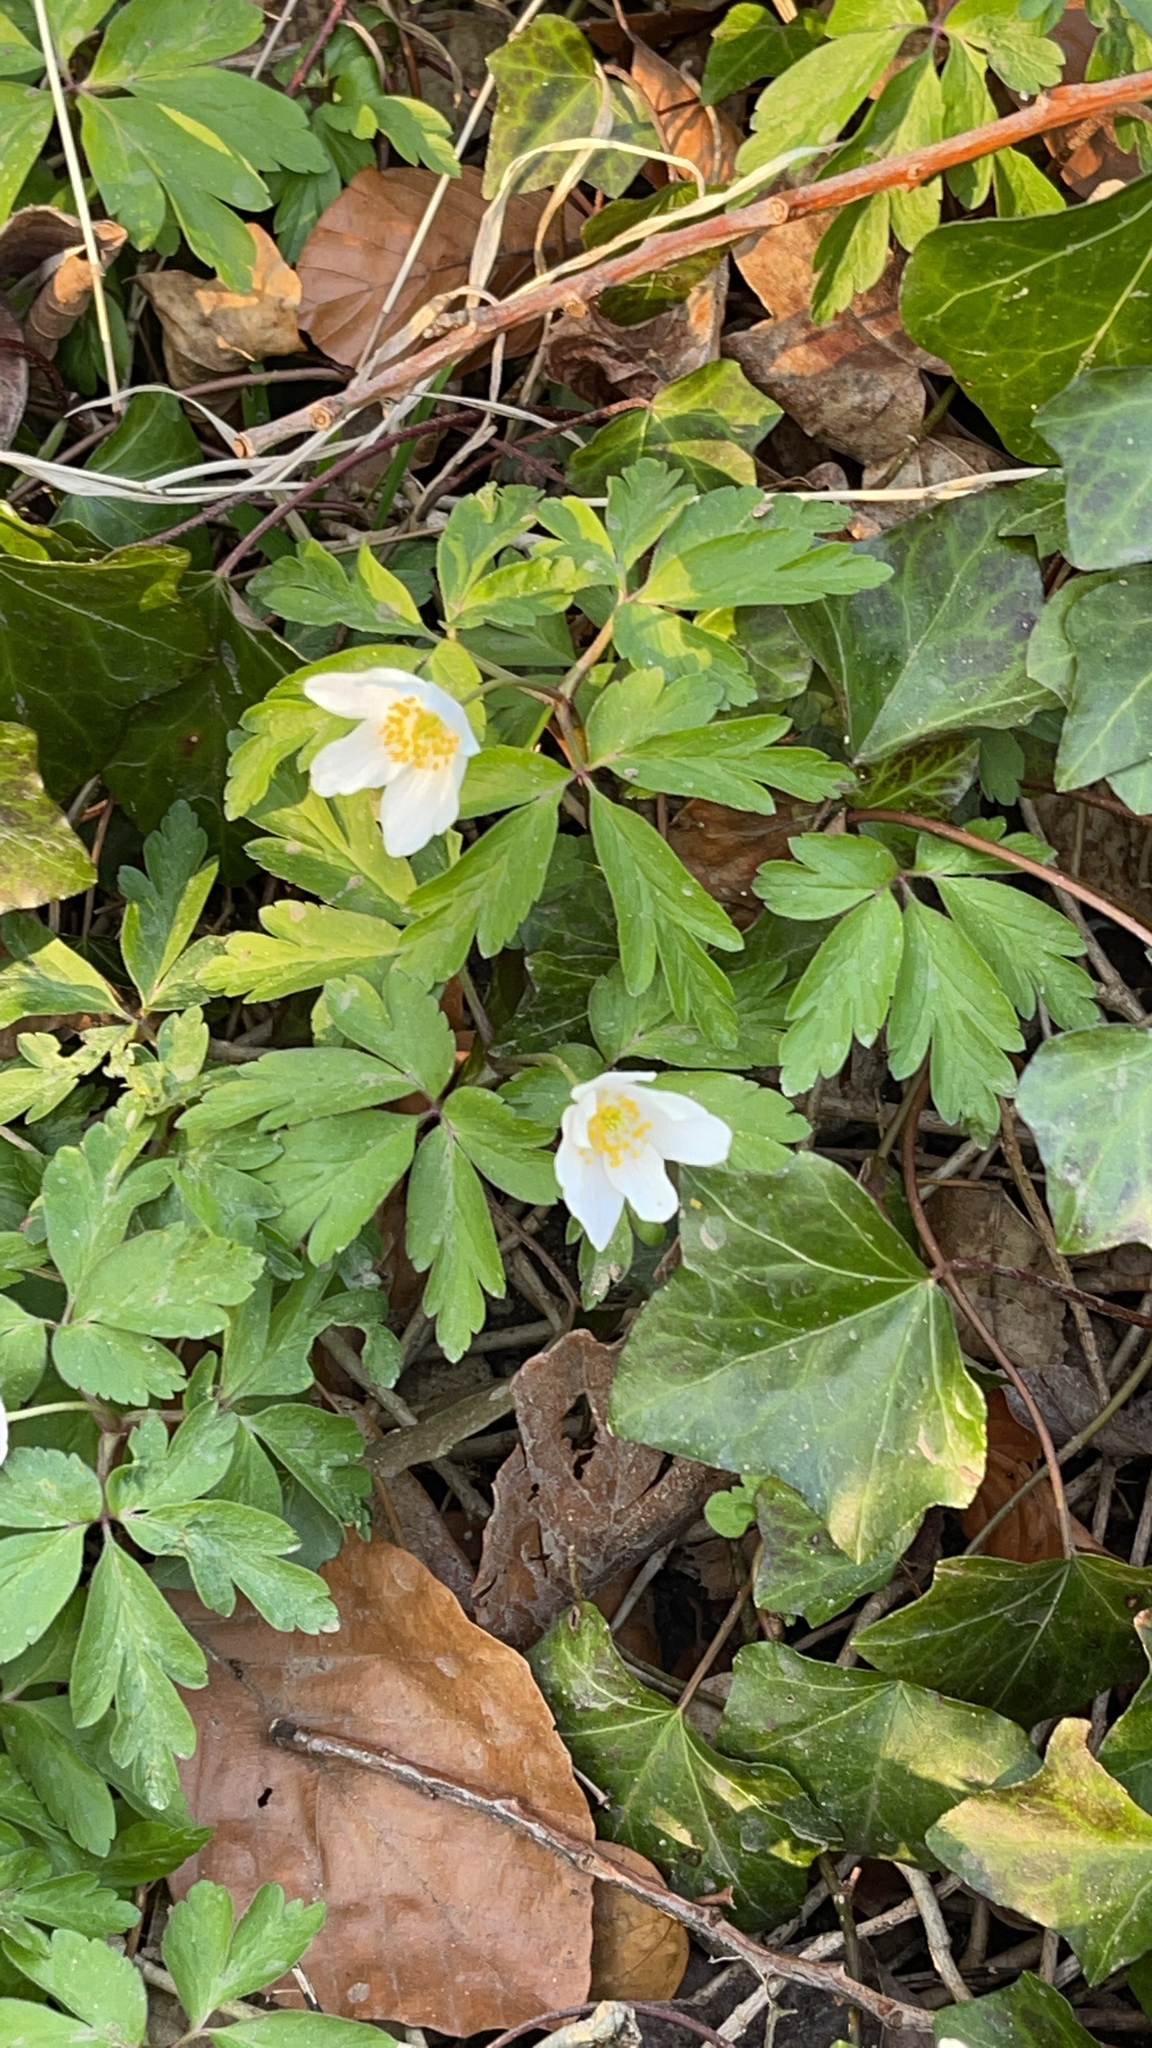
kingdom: Plantae
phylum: Tracheophyta
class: Magnoliopsida
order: Ranunculales
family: Ranunculaceae
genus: Anemone
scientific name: Anemone nemorosa
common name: Wood anemone
